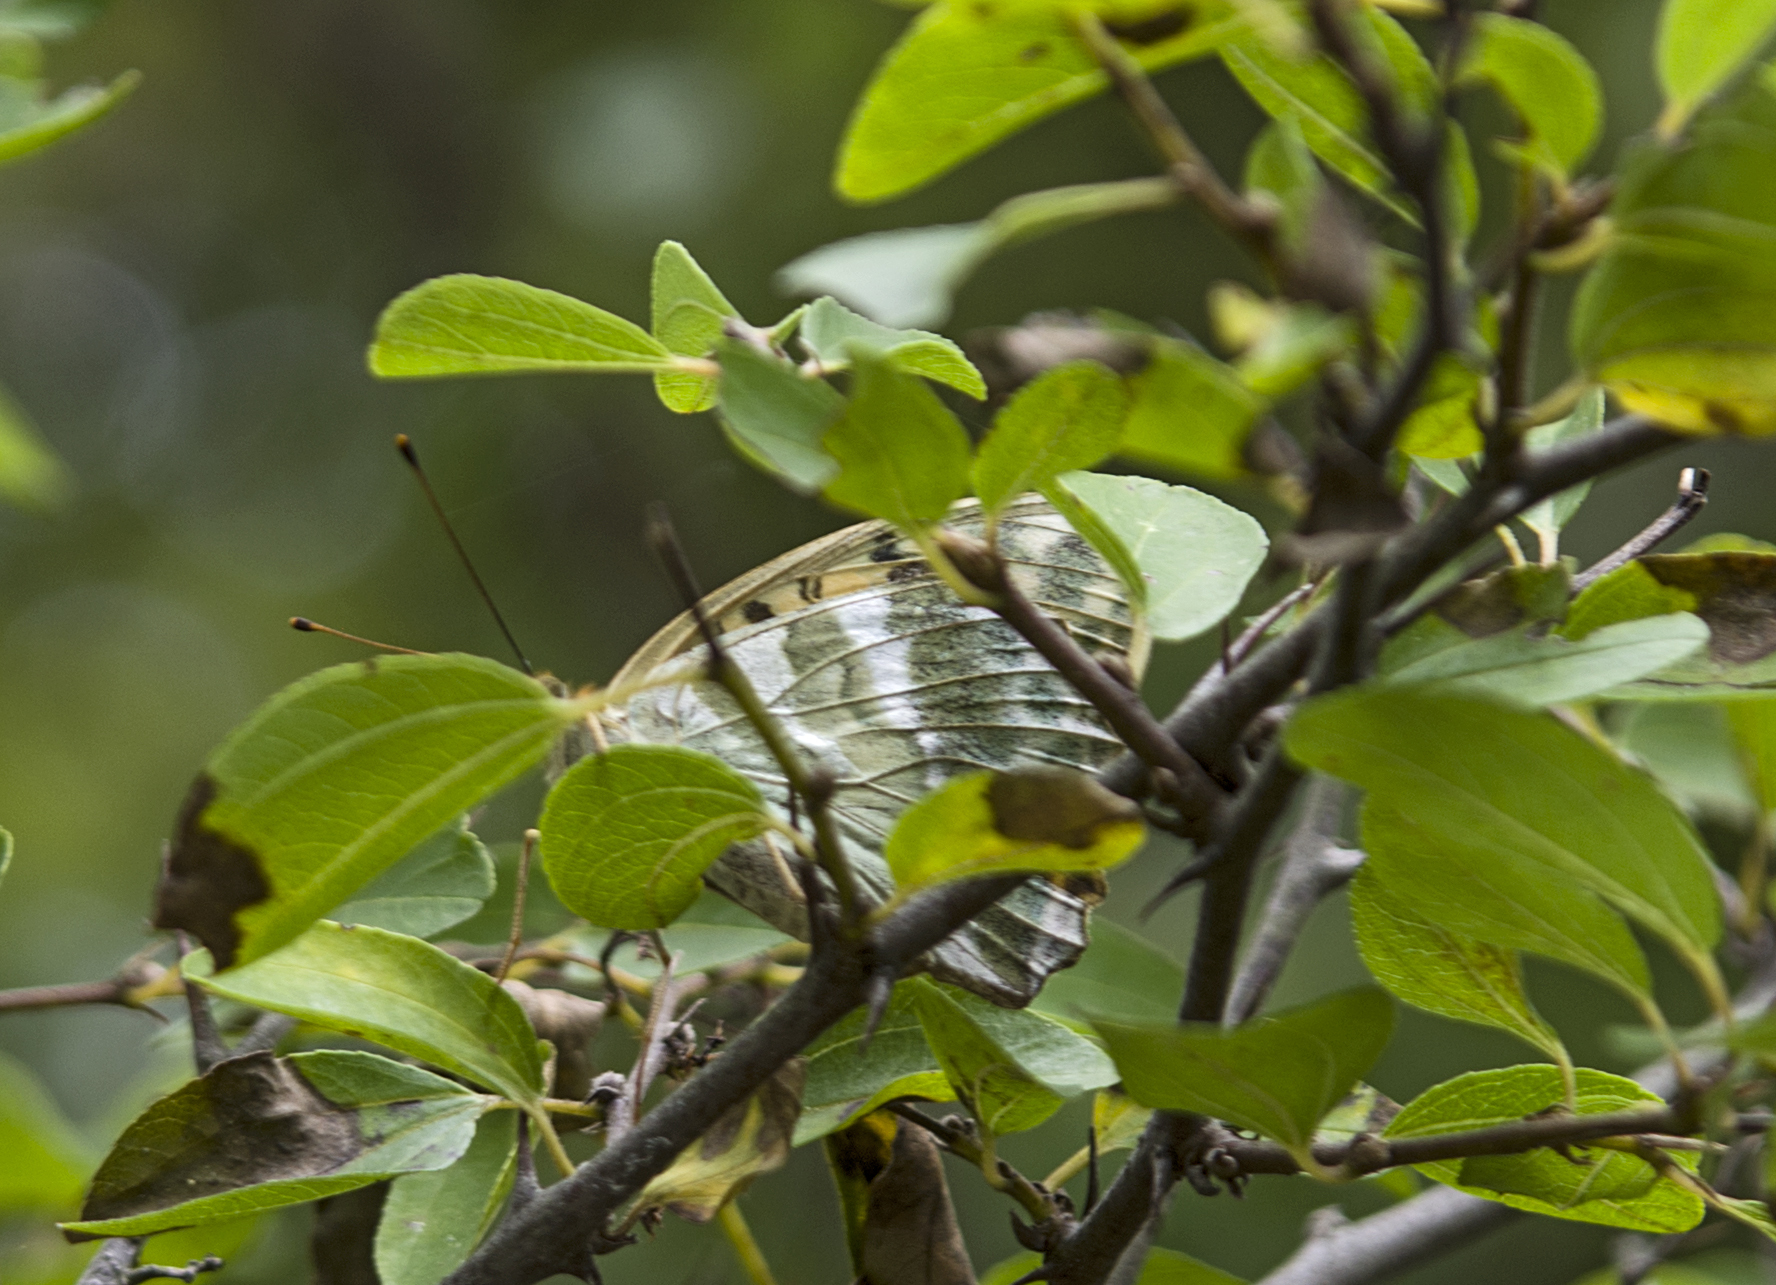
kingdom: Animalia
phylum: Arthropoda
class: Insecta
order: Lepidoptera
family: Nymphalidae
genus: Argynnis
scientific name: Argynnis paphia
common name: Silver-washed fritillary
